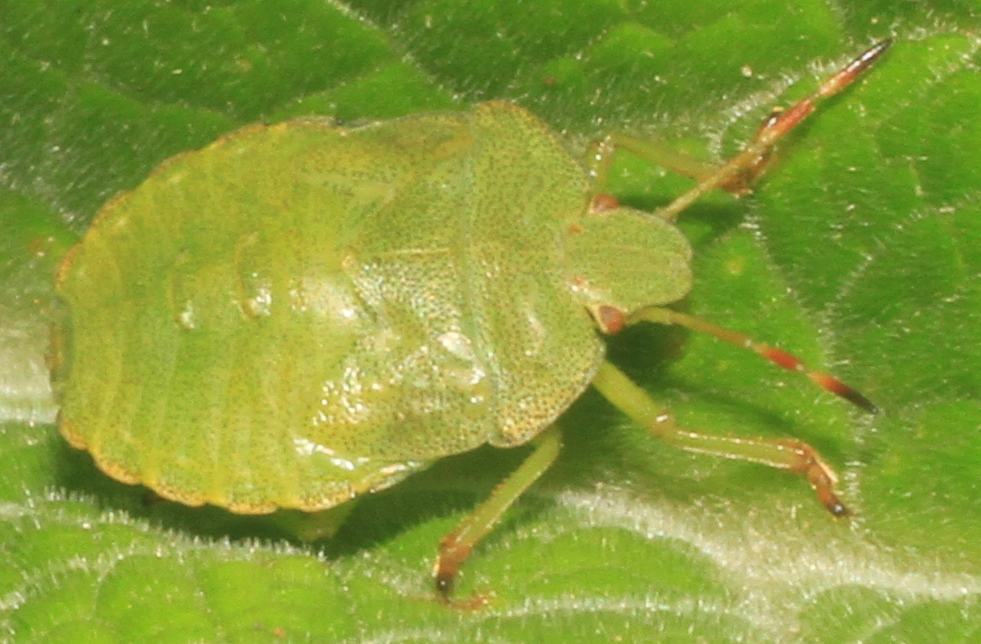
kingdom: Animalia
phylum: Arthropoda
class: Insecta
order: Hemiptera
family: Pentatomidae
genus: Palomena
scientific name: Palomena prasina
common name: Green shieldbug
